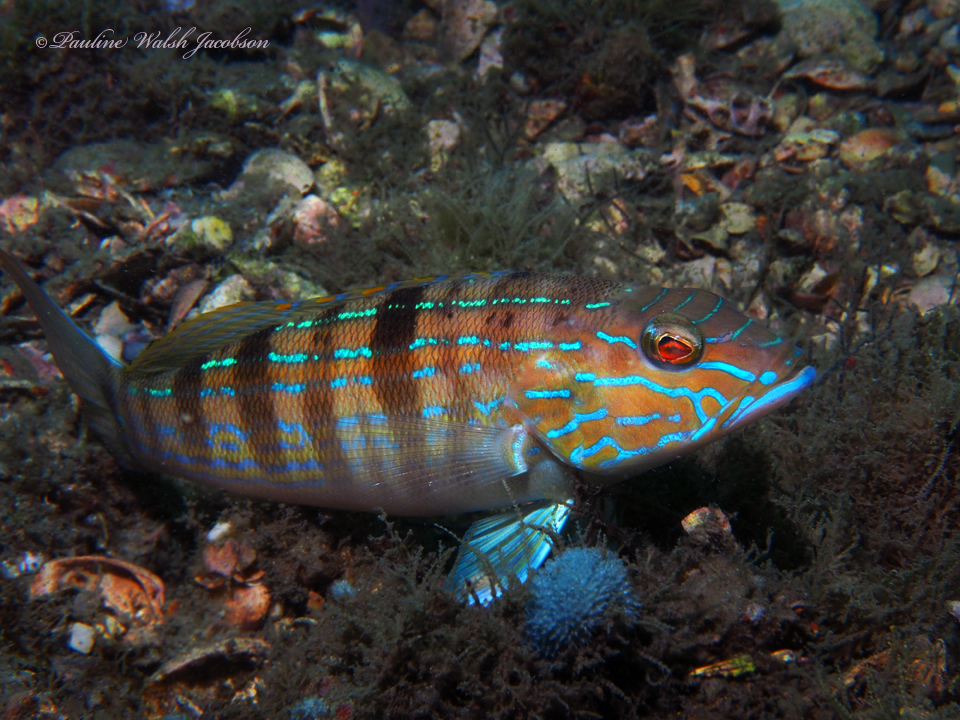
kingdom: Animalia
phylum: Chordata
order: Perciformes
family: Serranidae
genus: Diplectrum
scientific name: Diplectrum formosum
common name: Sand perch
